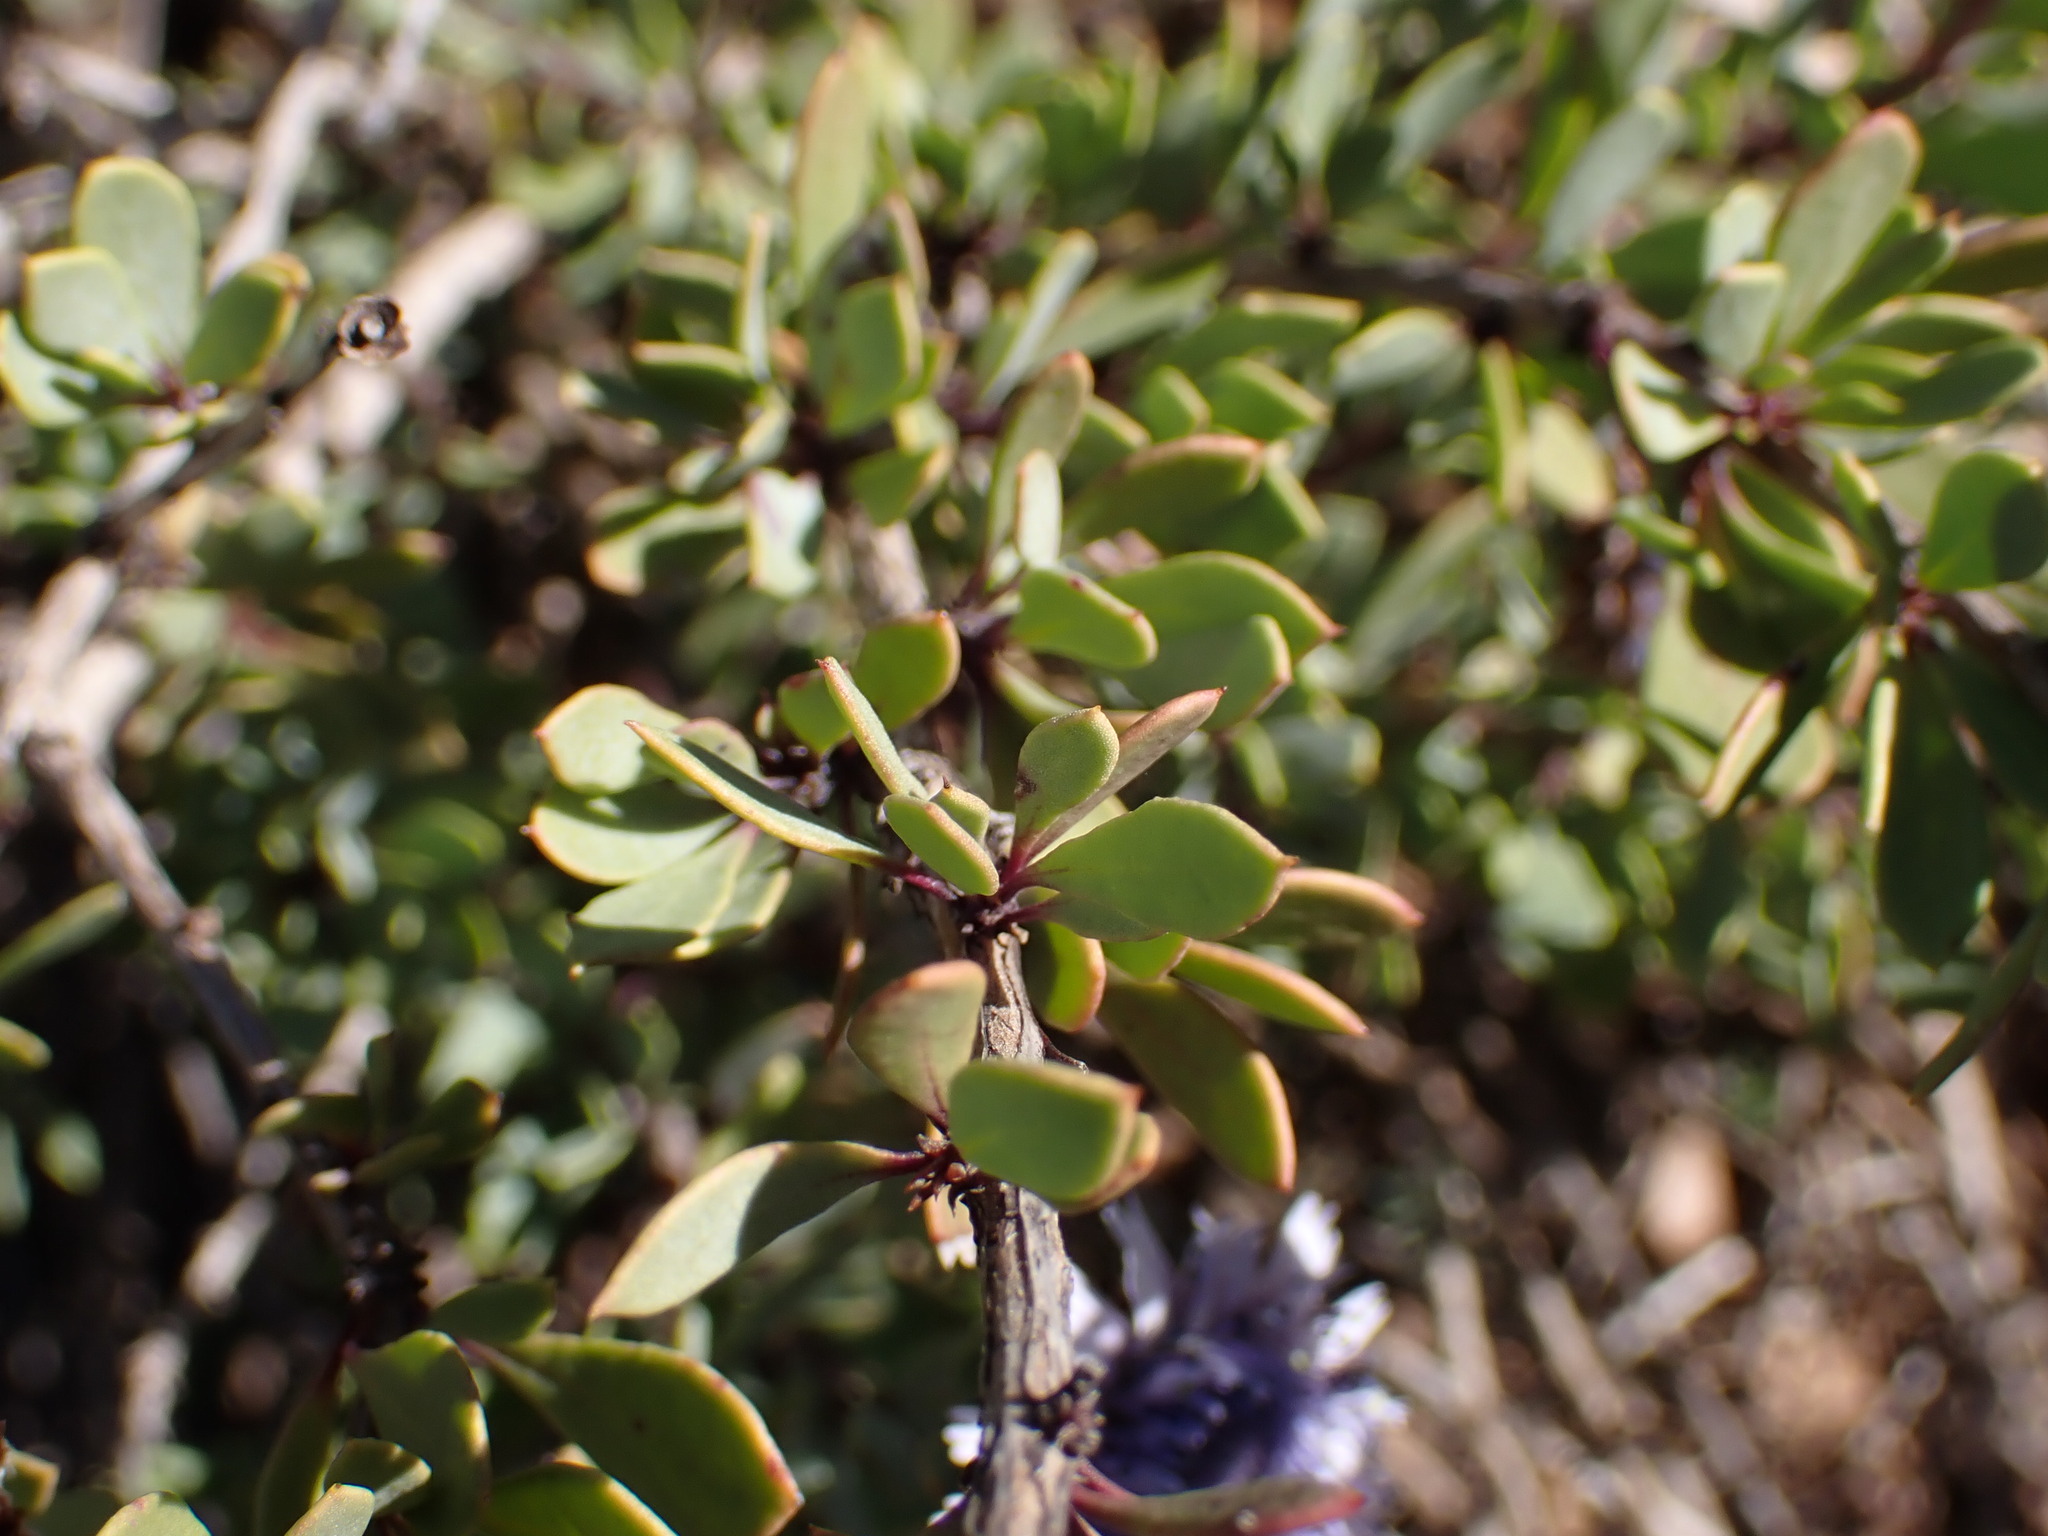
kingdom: Plantae
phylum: Tracheophyta
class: Magnoliopsida
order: Lamiales
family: Plantaginaceae
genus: Globularia
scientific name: Globularia alypum
